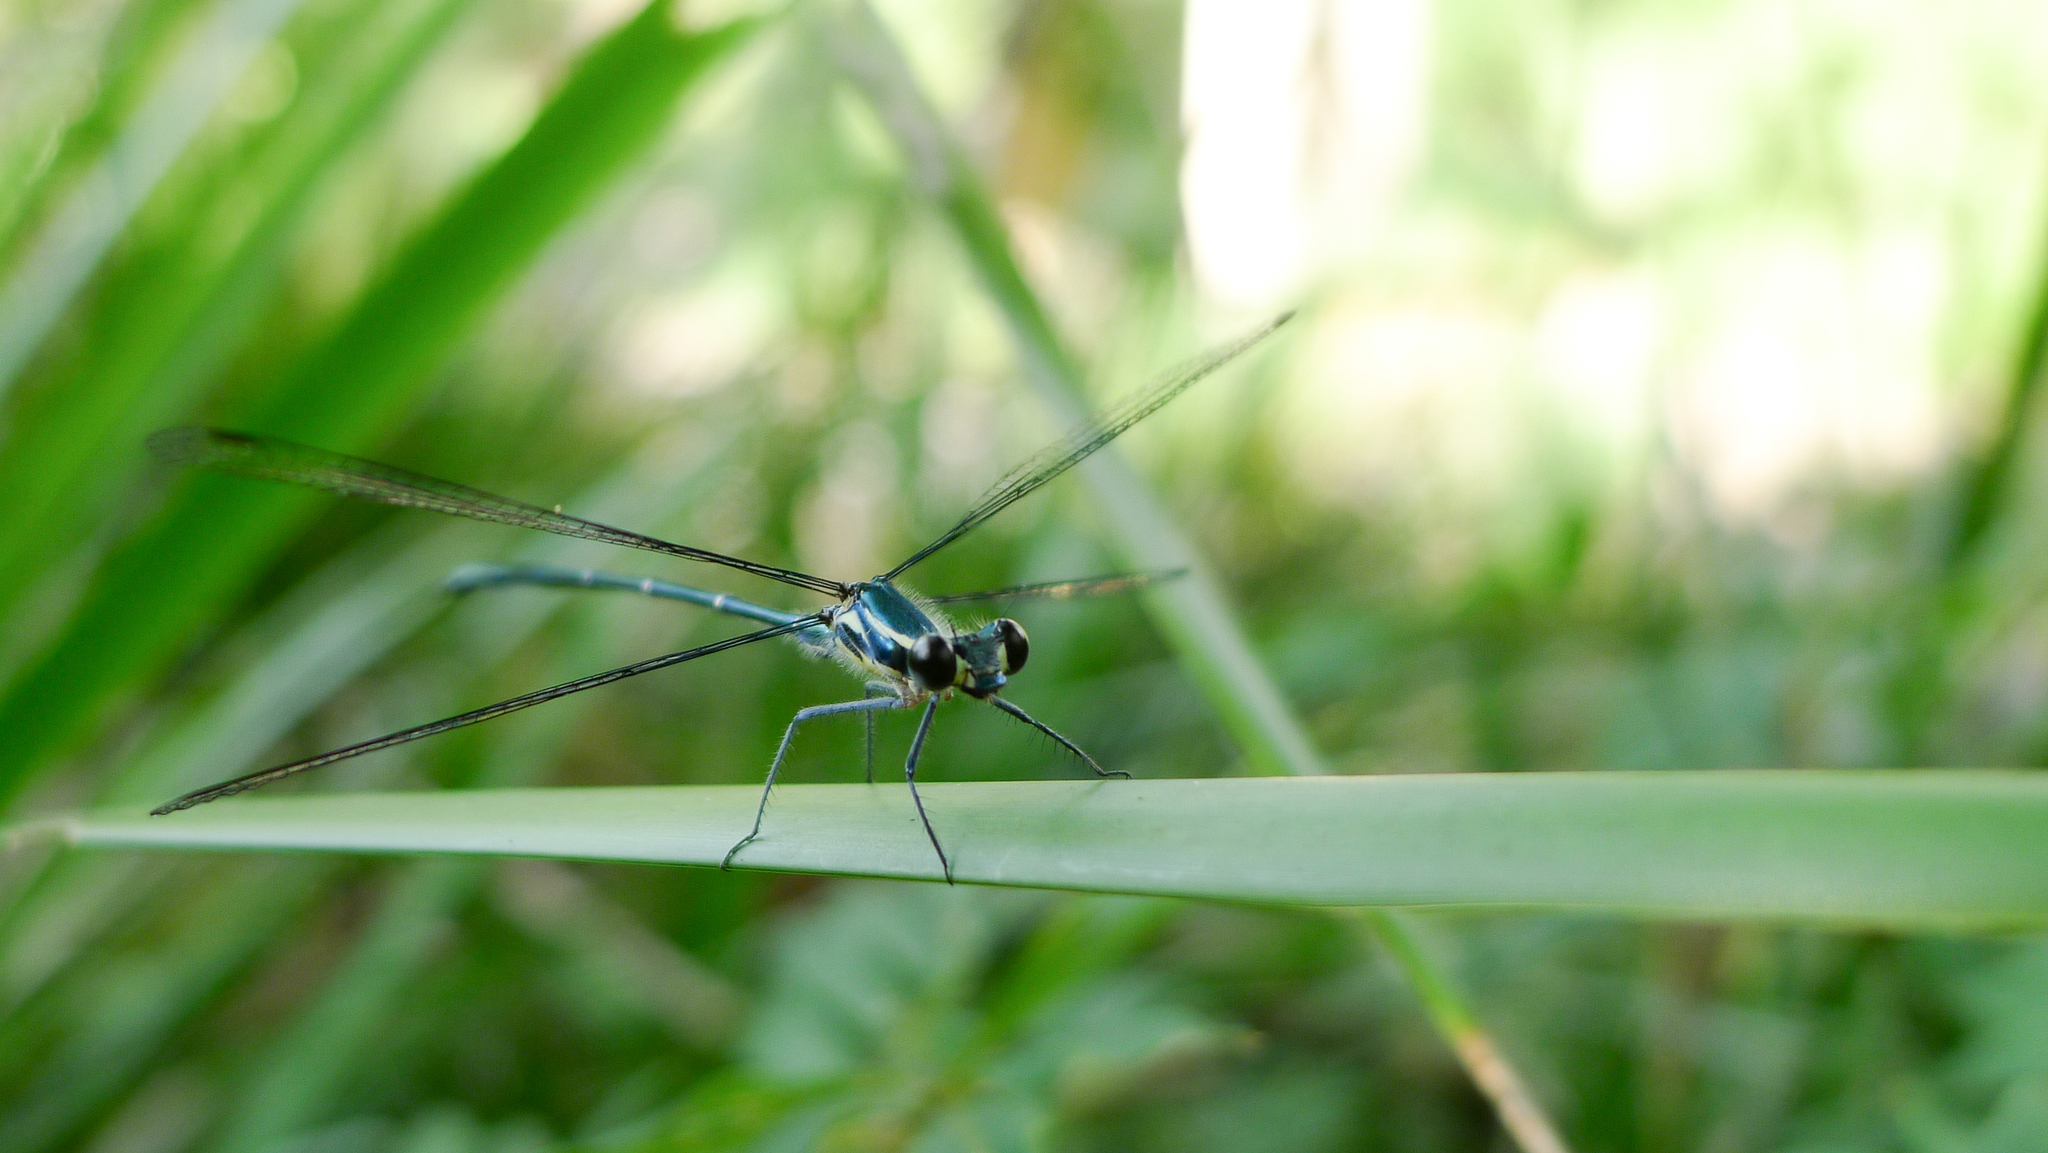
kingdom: Animalia
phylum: Arthropoda
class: Insecta
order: Odonata
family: Argiolestidae
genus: Austroargiolestes
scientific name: Austroargiolestes icteromelas
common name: Common flatwing
